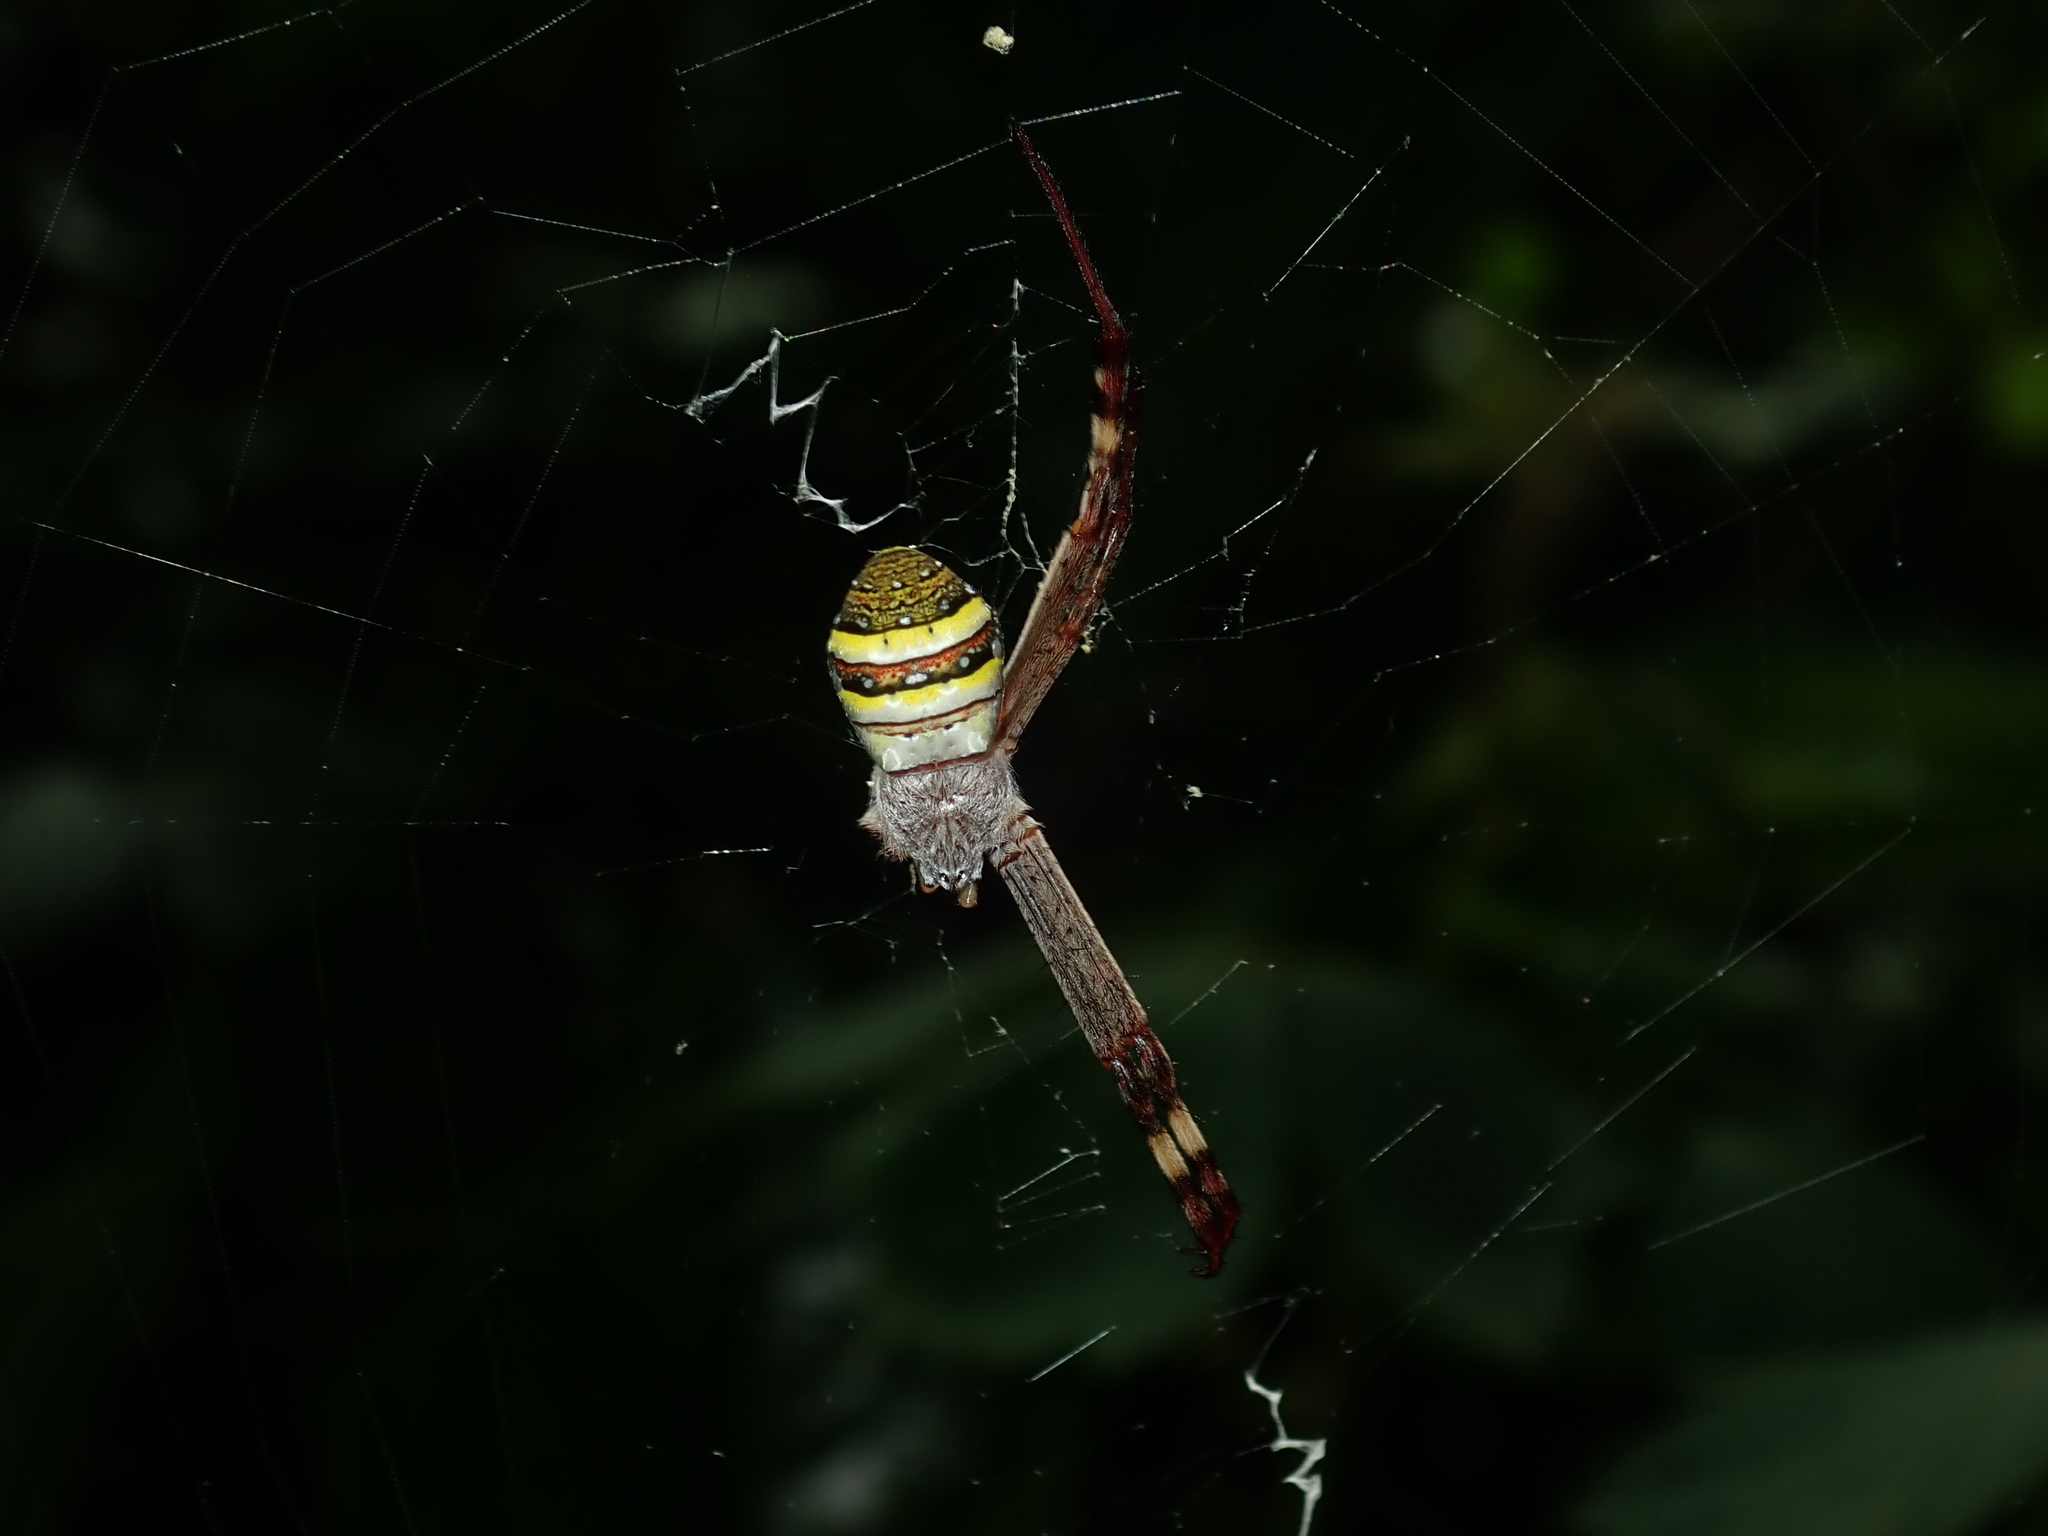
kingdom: Animalia
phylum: Arthropoda
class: Arachnida
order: Araneae
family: Araneidae
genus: Argiope
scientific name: Argiope keyserlingi
